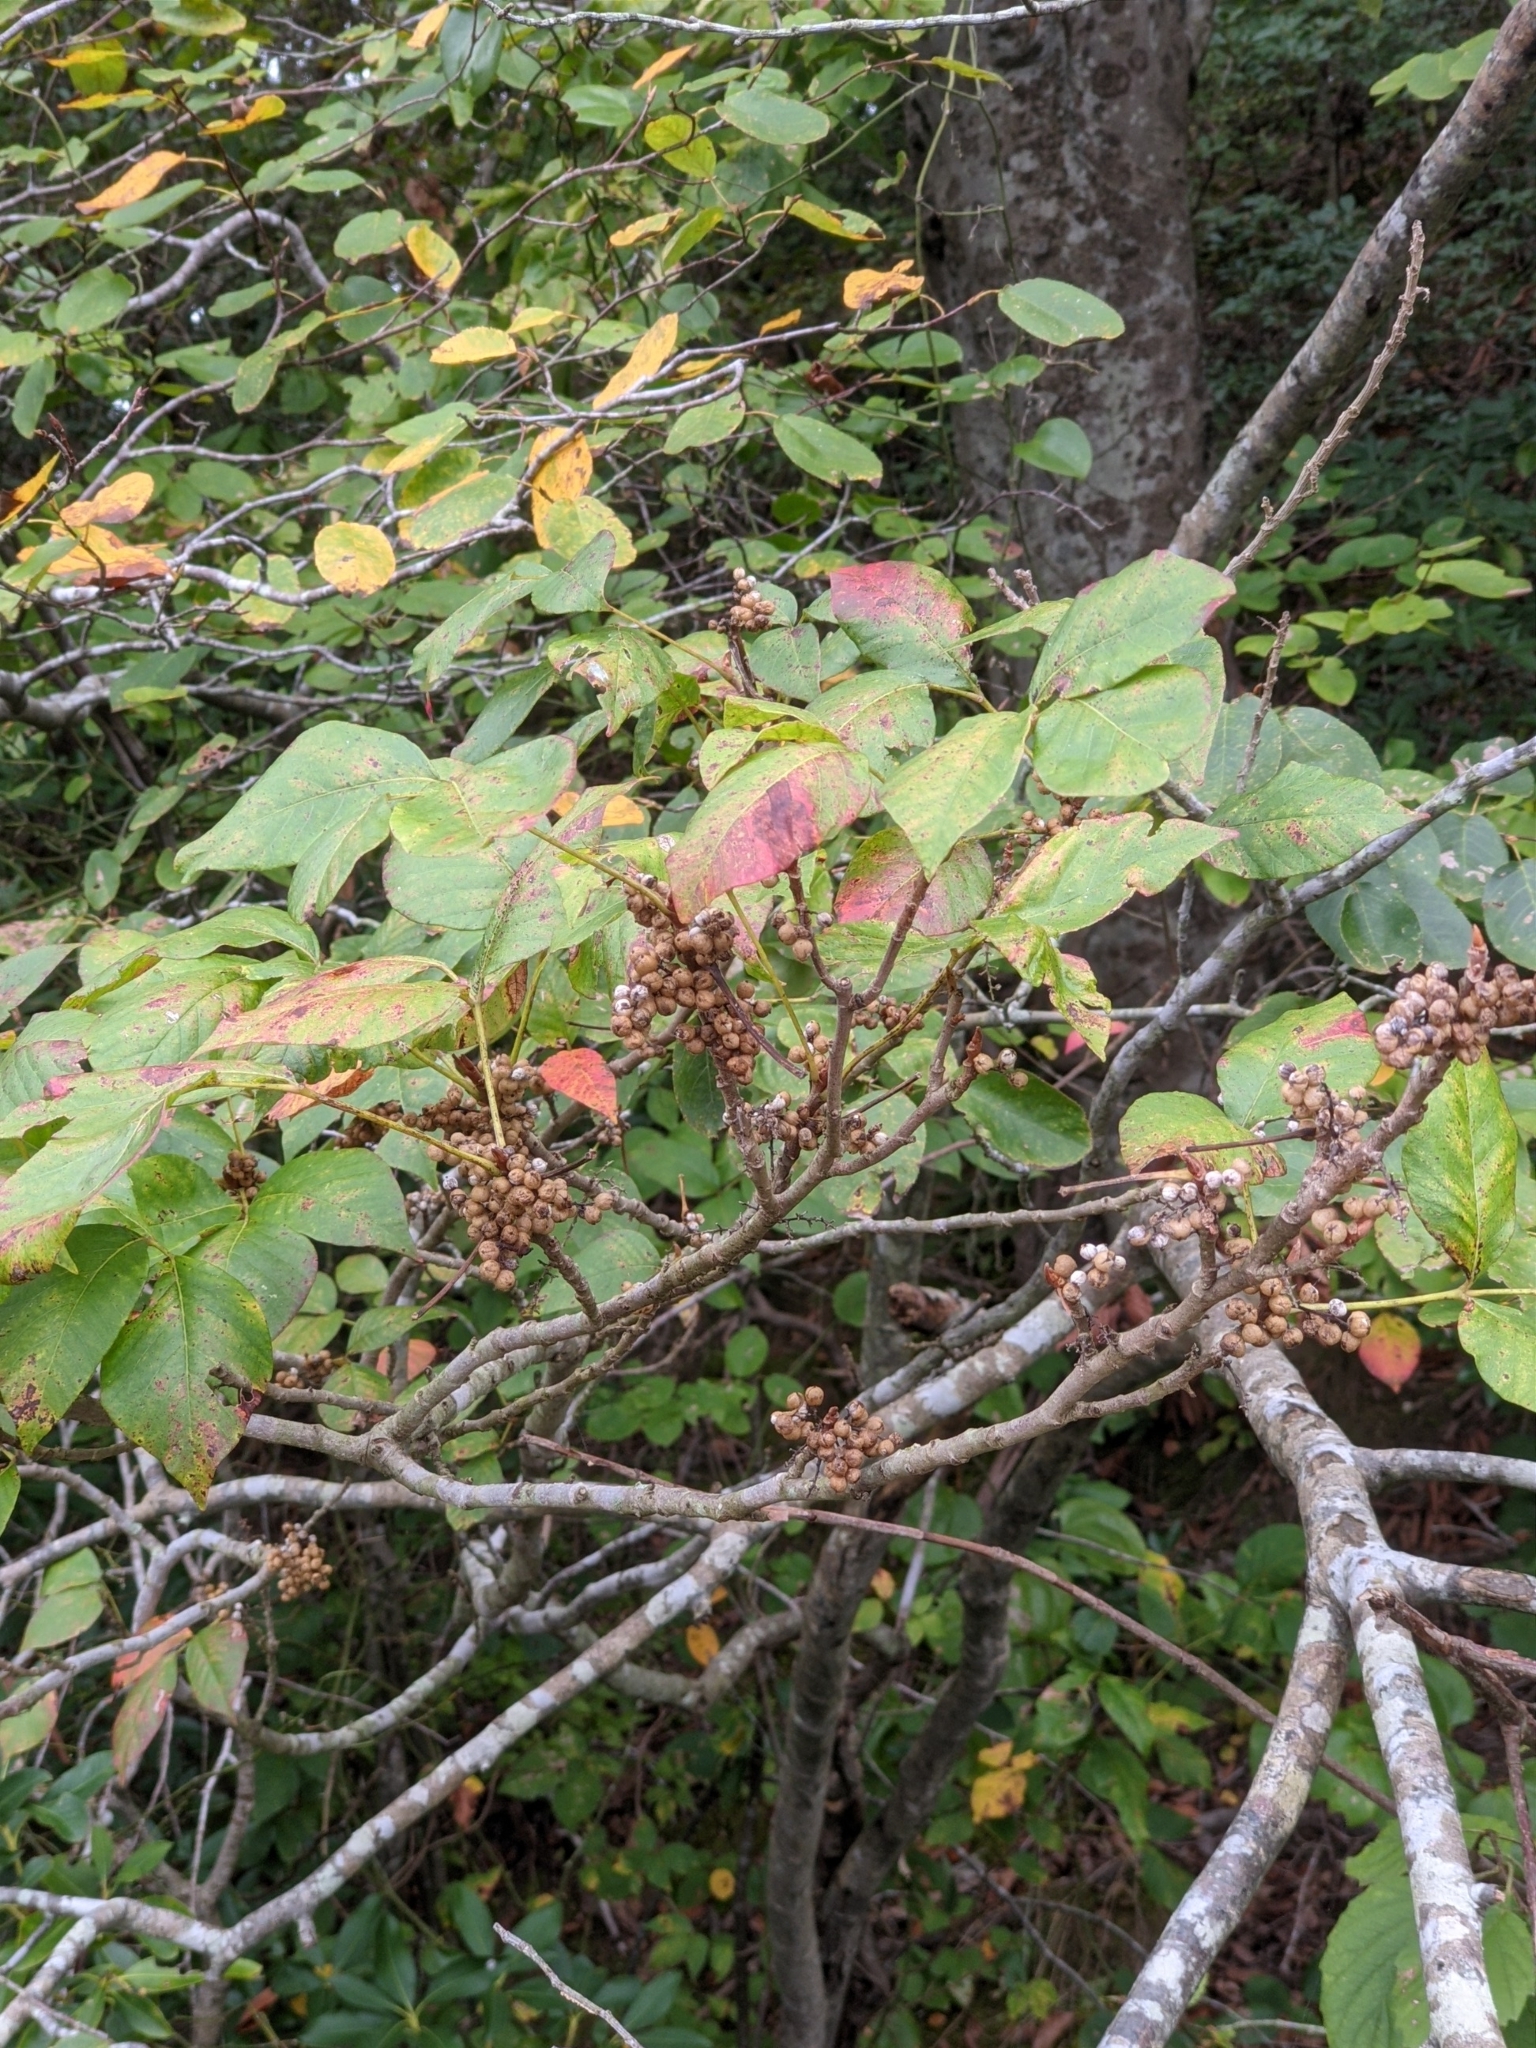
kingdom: Plantae
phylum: Tracheophyta
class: Magnoliopsida
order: Sapindales
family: Anacardiaceae
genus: Toxicodendron
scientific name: Toxicodendron radicans
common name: Poison ivy
